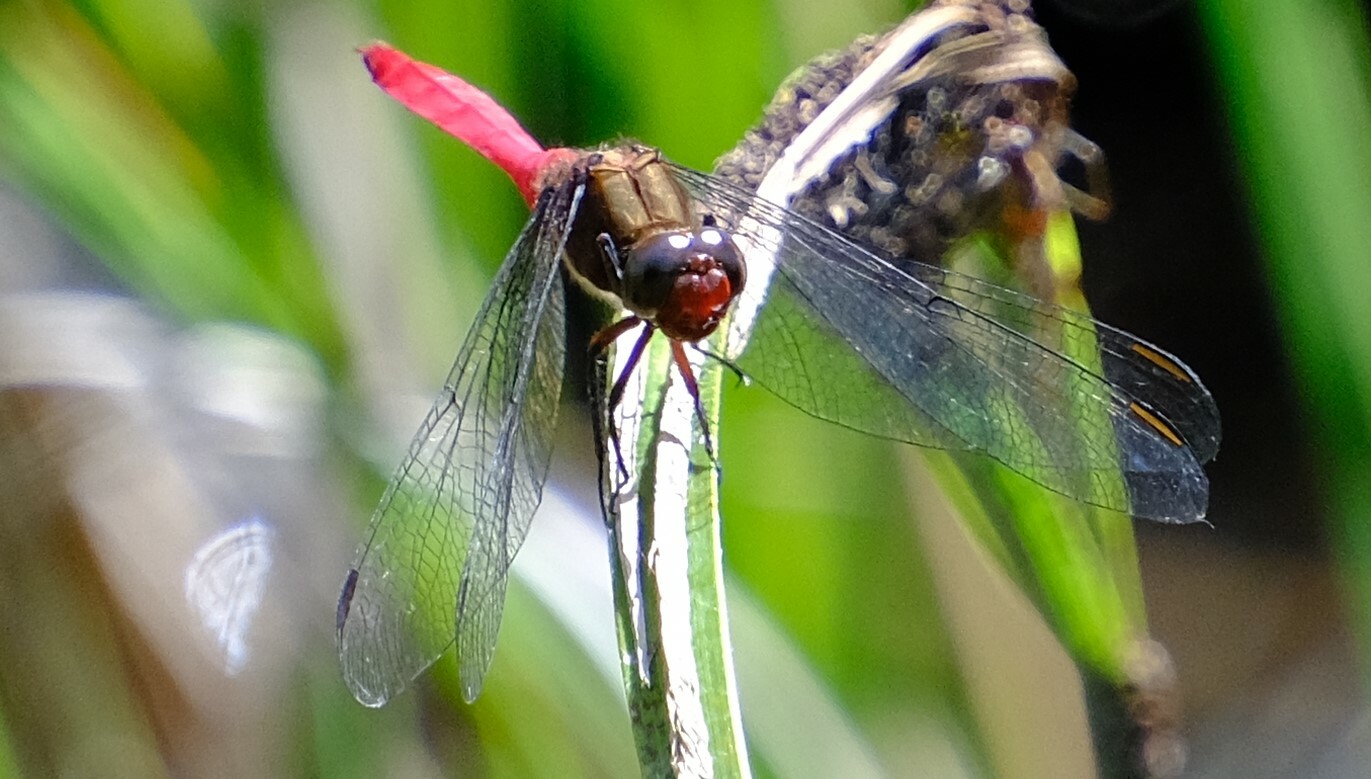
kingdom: Animalia
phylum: Arthropoda
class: Insecta
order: Odonata
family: Libellulidae
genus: Orthetrum
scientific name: Orthetrum villosovittatum
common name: Firery skimmer
